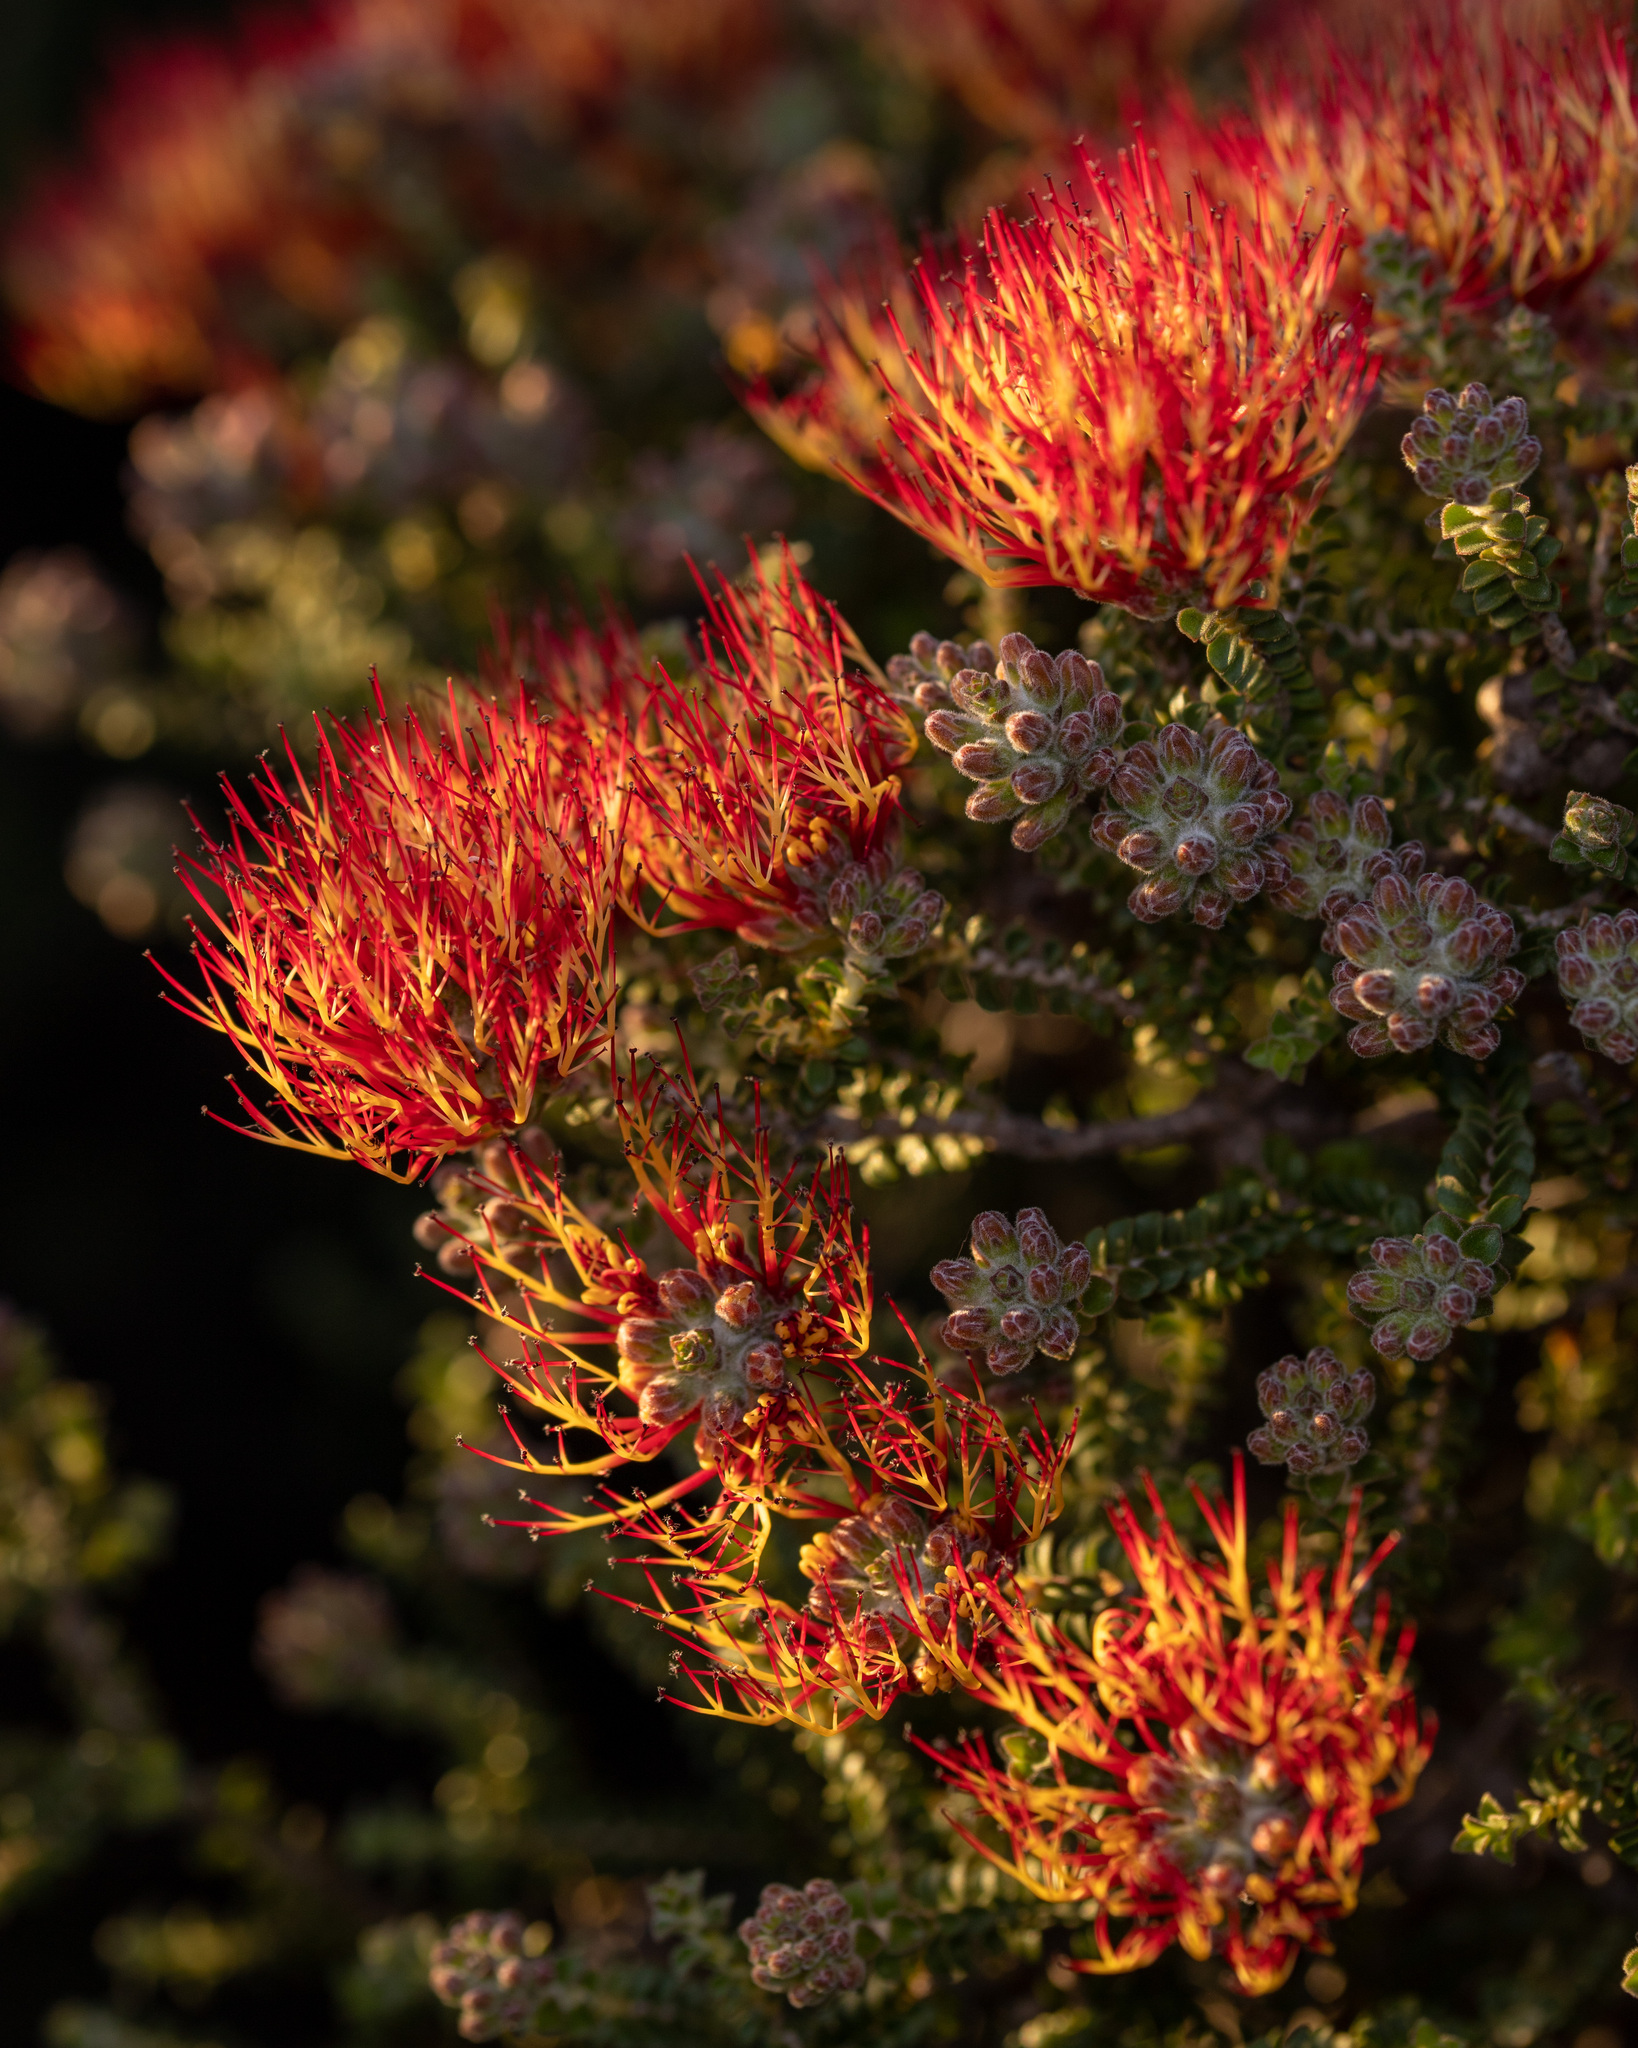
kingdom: Plantae
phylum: Tracheophyta
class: Magnoliopsida
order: Myrtales
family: Myrtaceae
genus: Melaleuca
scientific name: Melaleuca variegata
